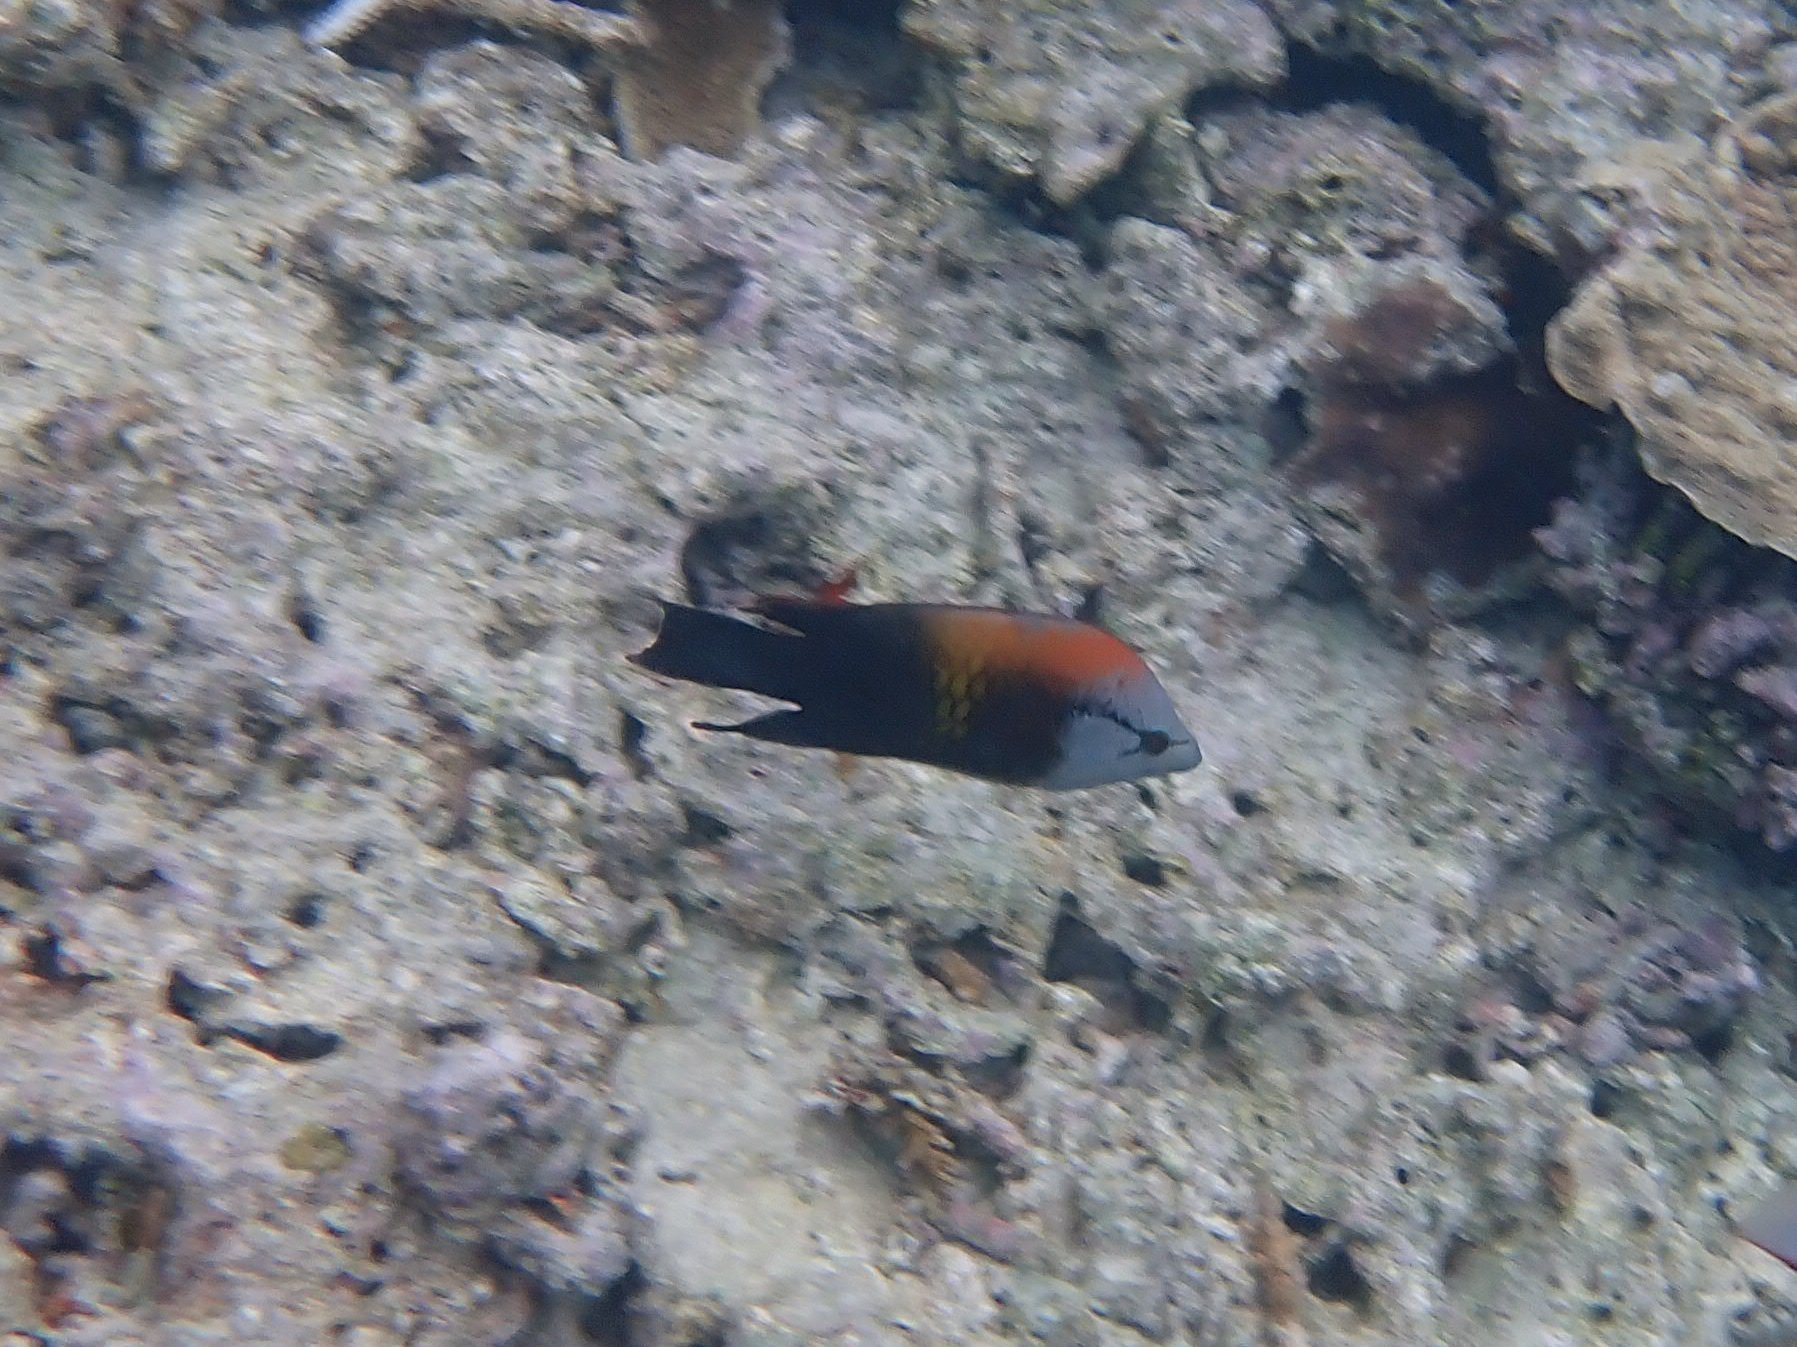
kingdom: Animalia
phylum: Chordata
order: Perciformes
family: Labridae
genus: Epibulus
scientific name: Epibulus insidiator
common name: Slingjaw wrasse
